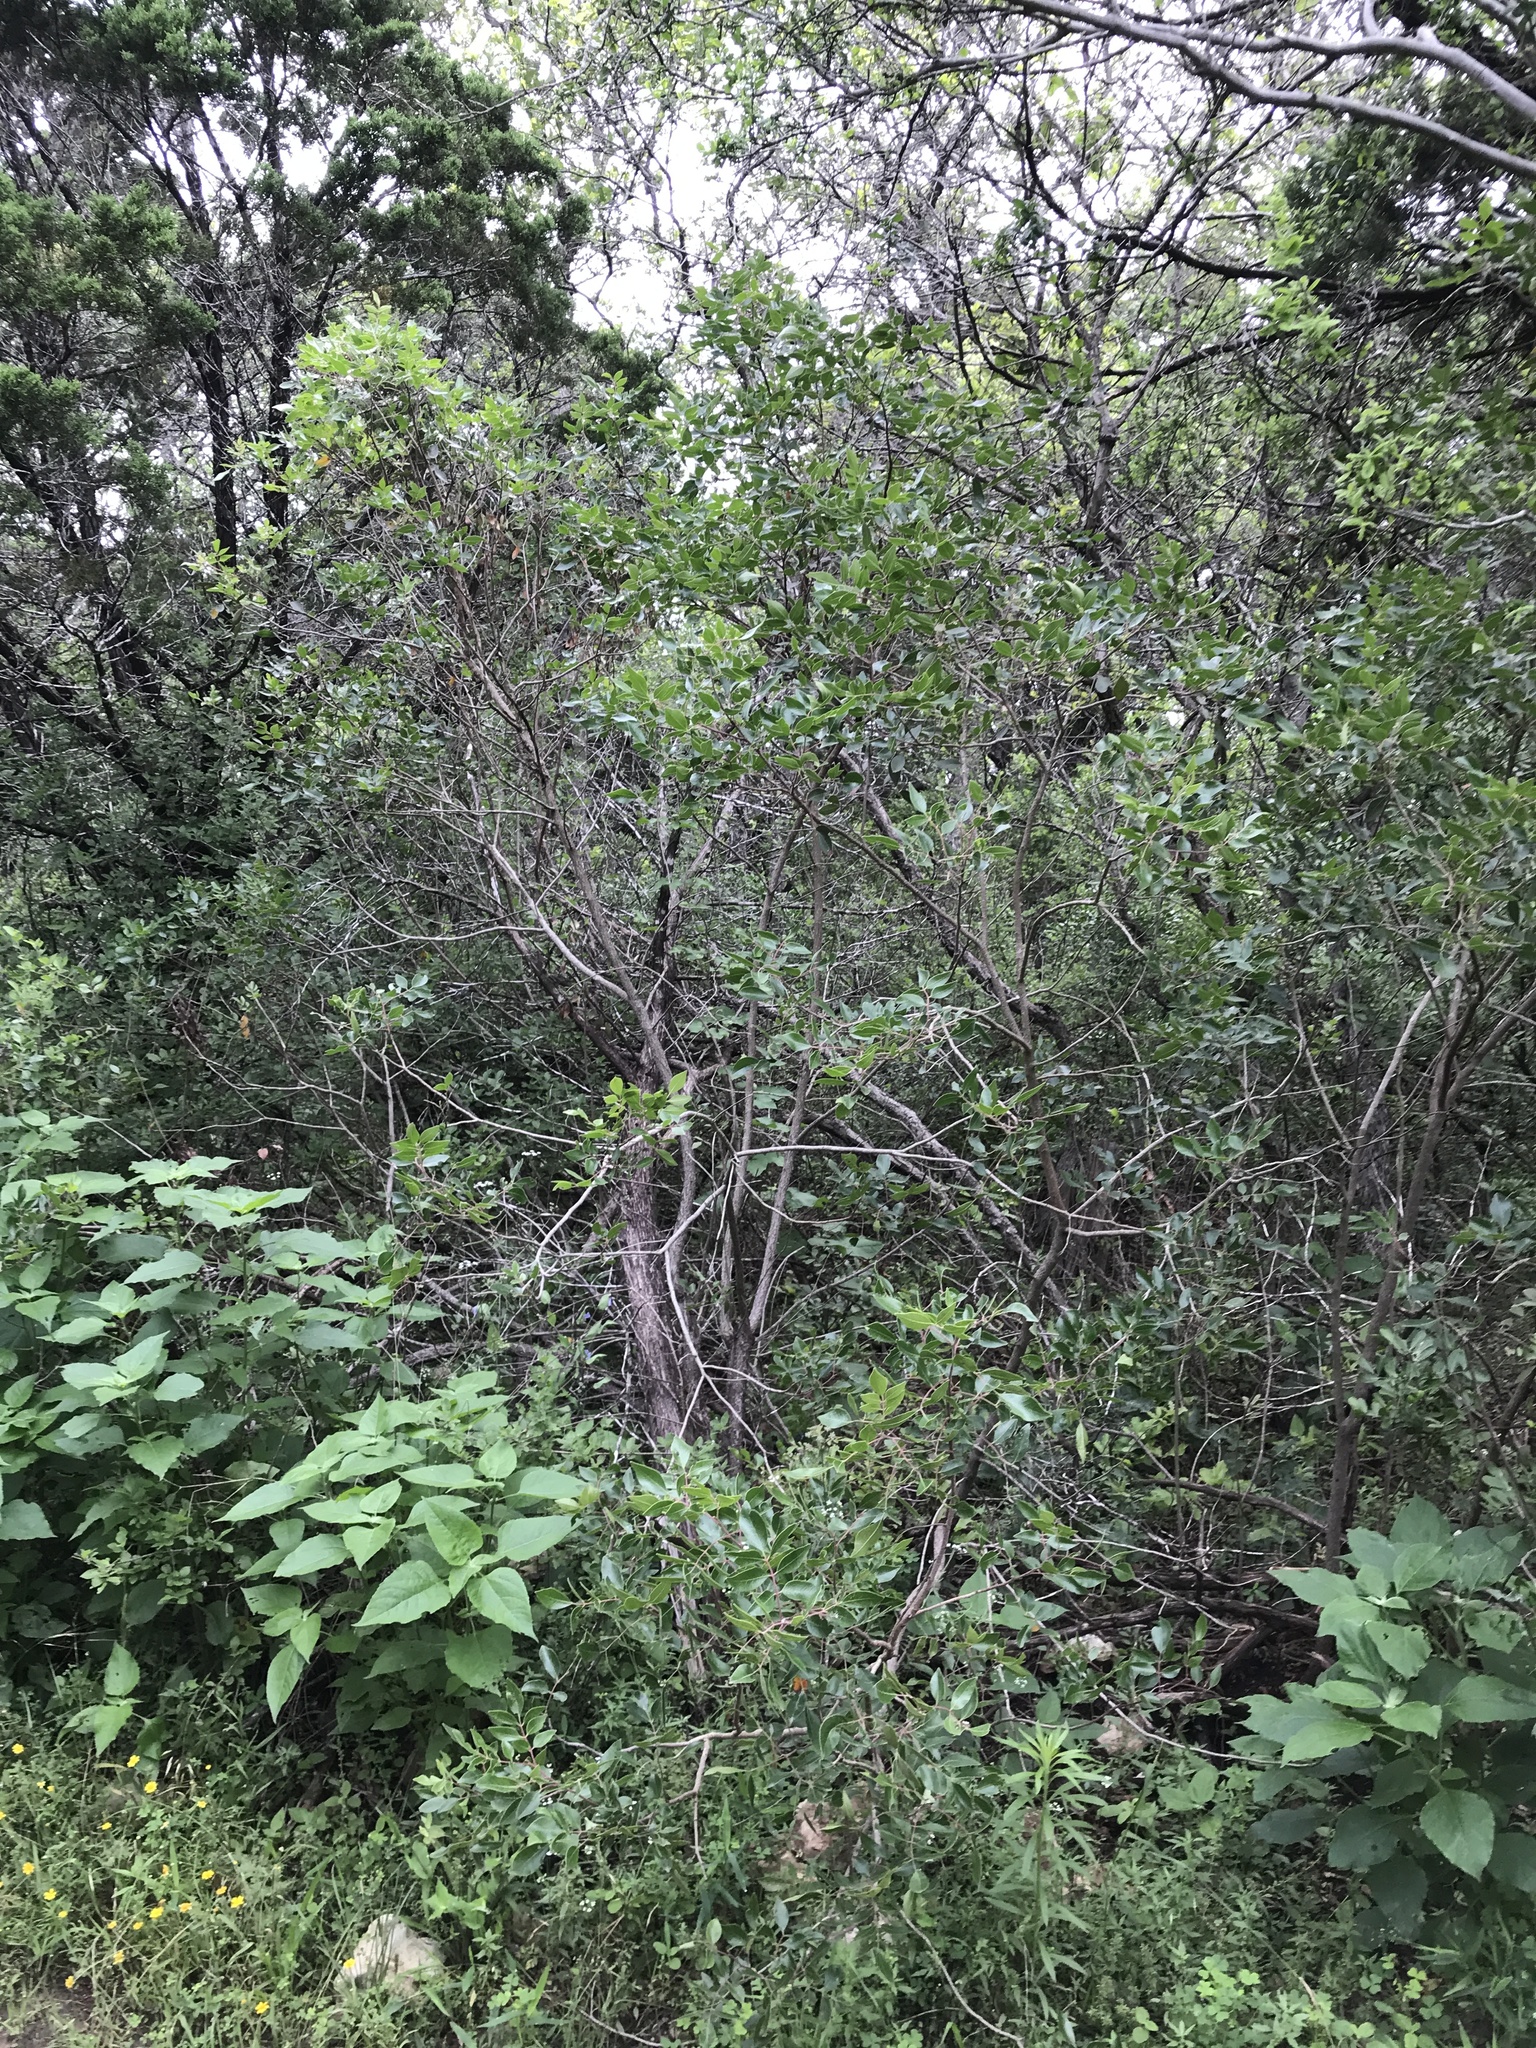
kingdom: Plantae
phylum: Tracheophyta
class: Magnoliopsida
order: Sapindales
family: Anacardiaceae
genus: Rhus
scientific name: Rhus virens
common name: Evergreen sumac
